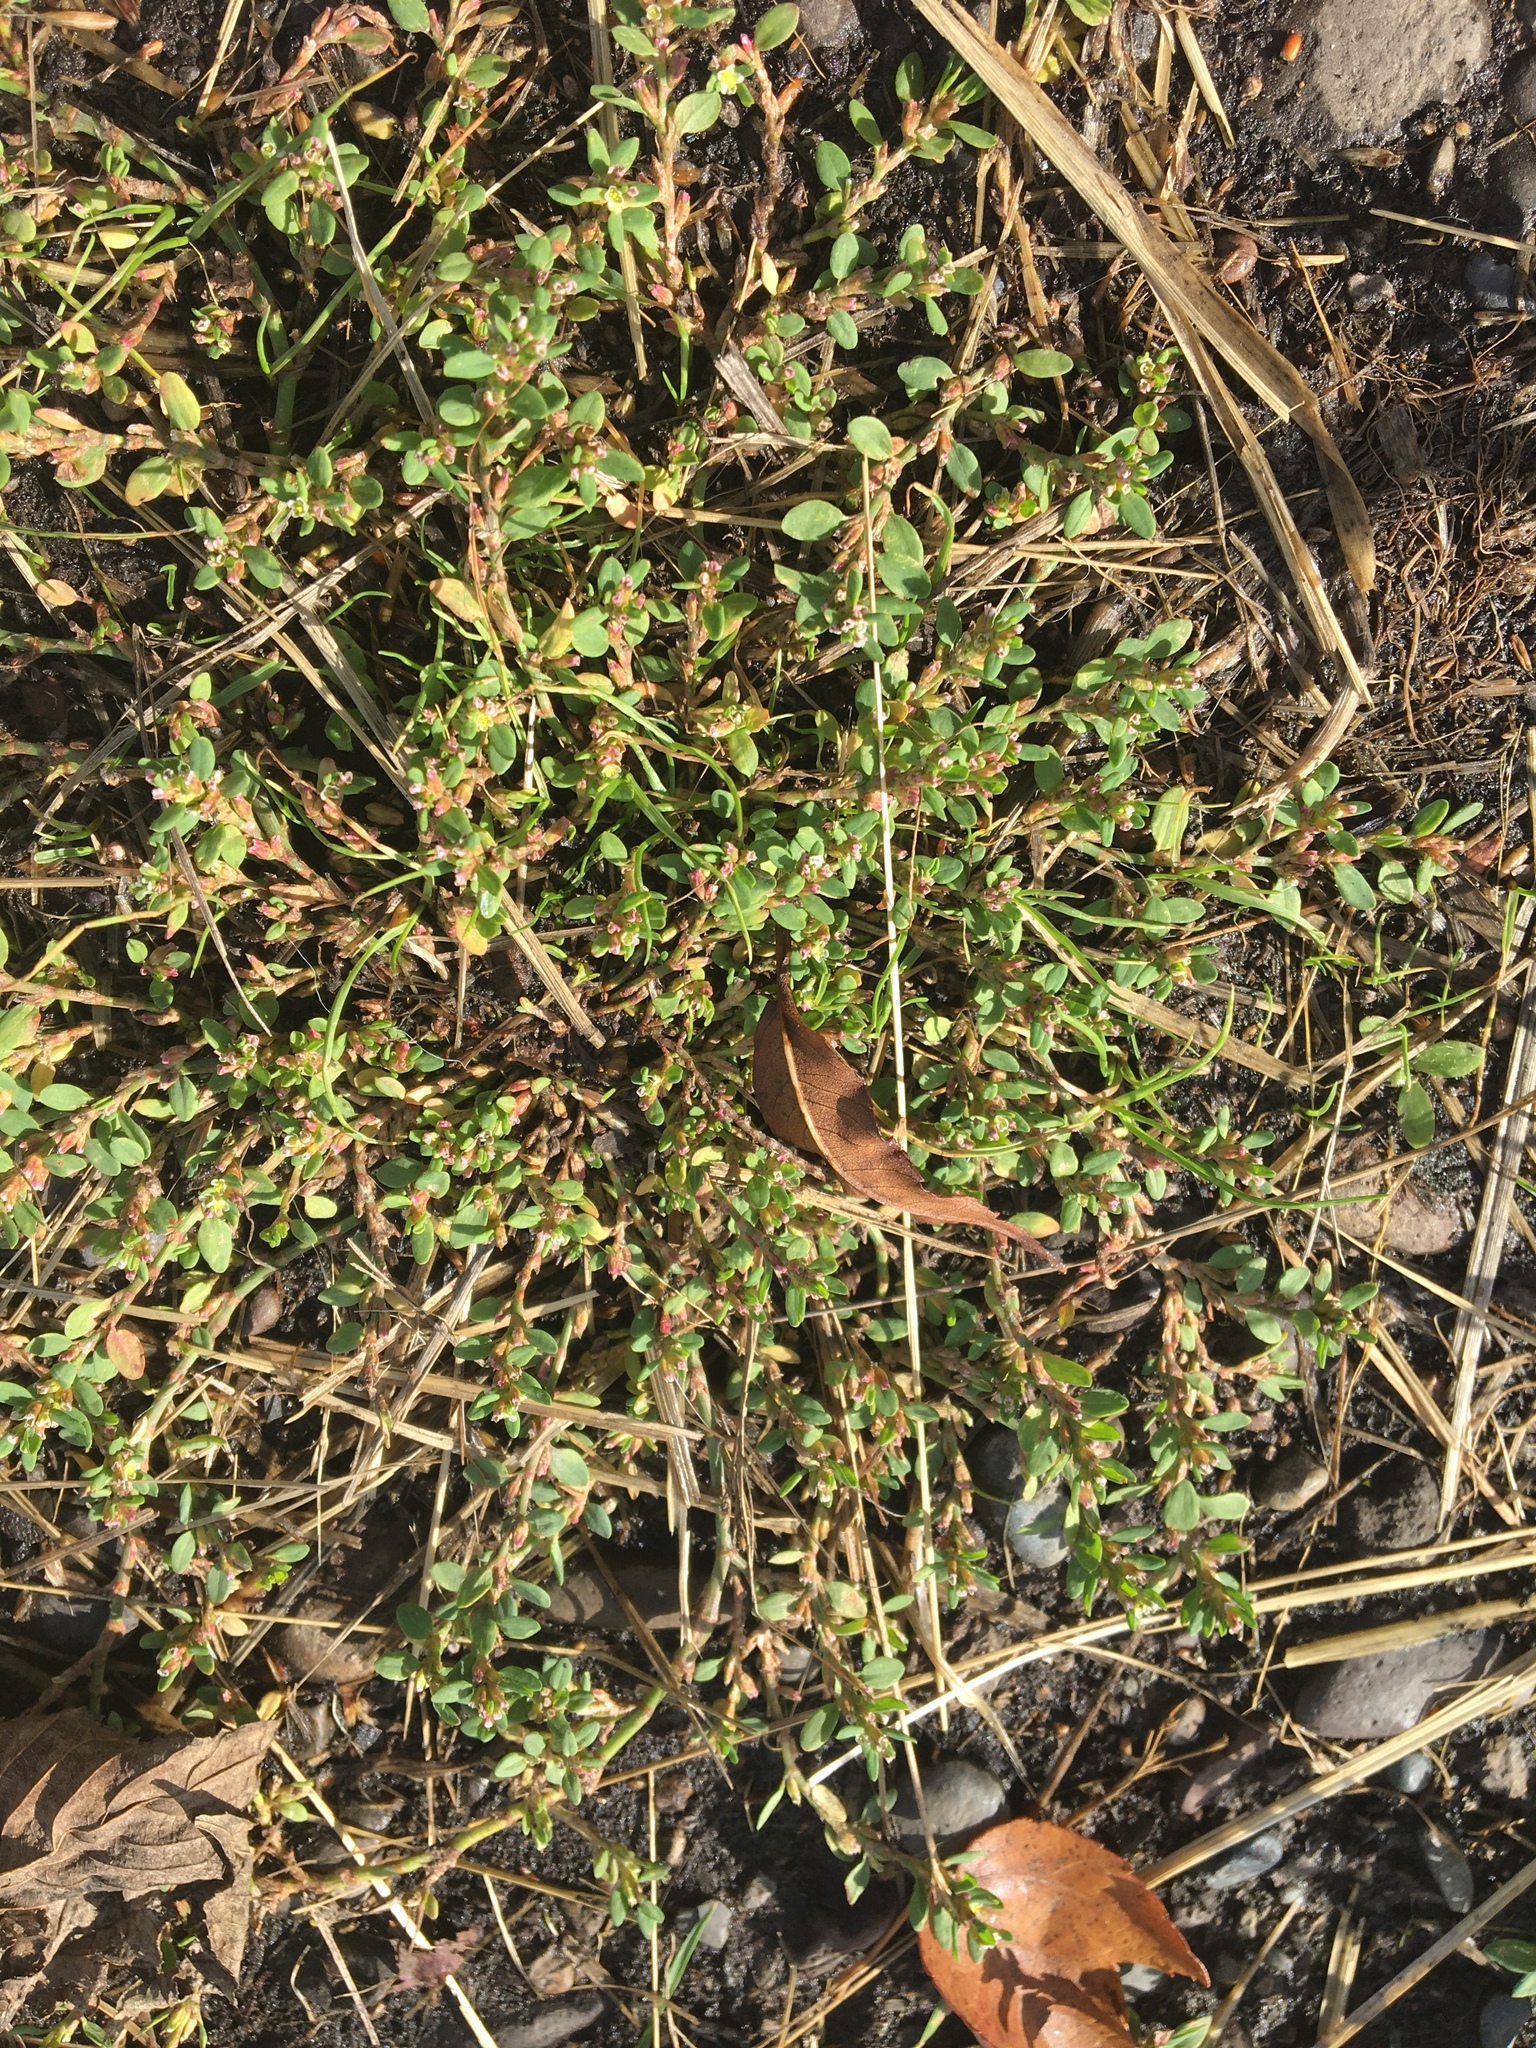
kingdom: Plantae
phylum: Tracheophyta
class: Magnoliopsida
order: Caryophyllales
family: Polygonaceae
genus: Polygonum
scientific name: Polygonum aviculare
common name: Prostrate knotweed
